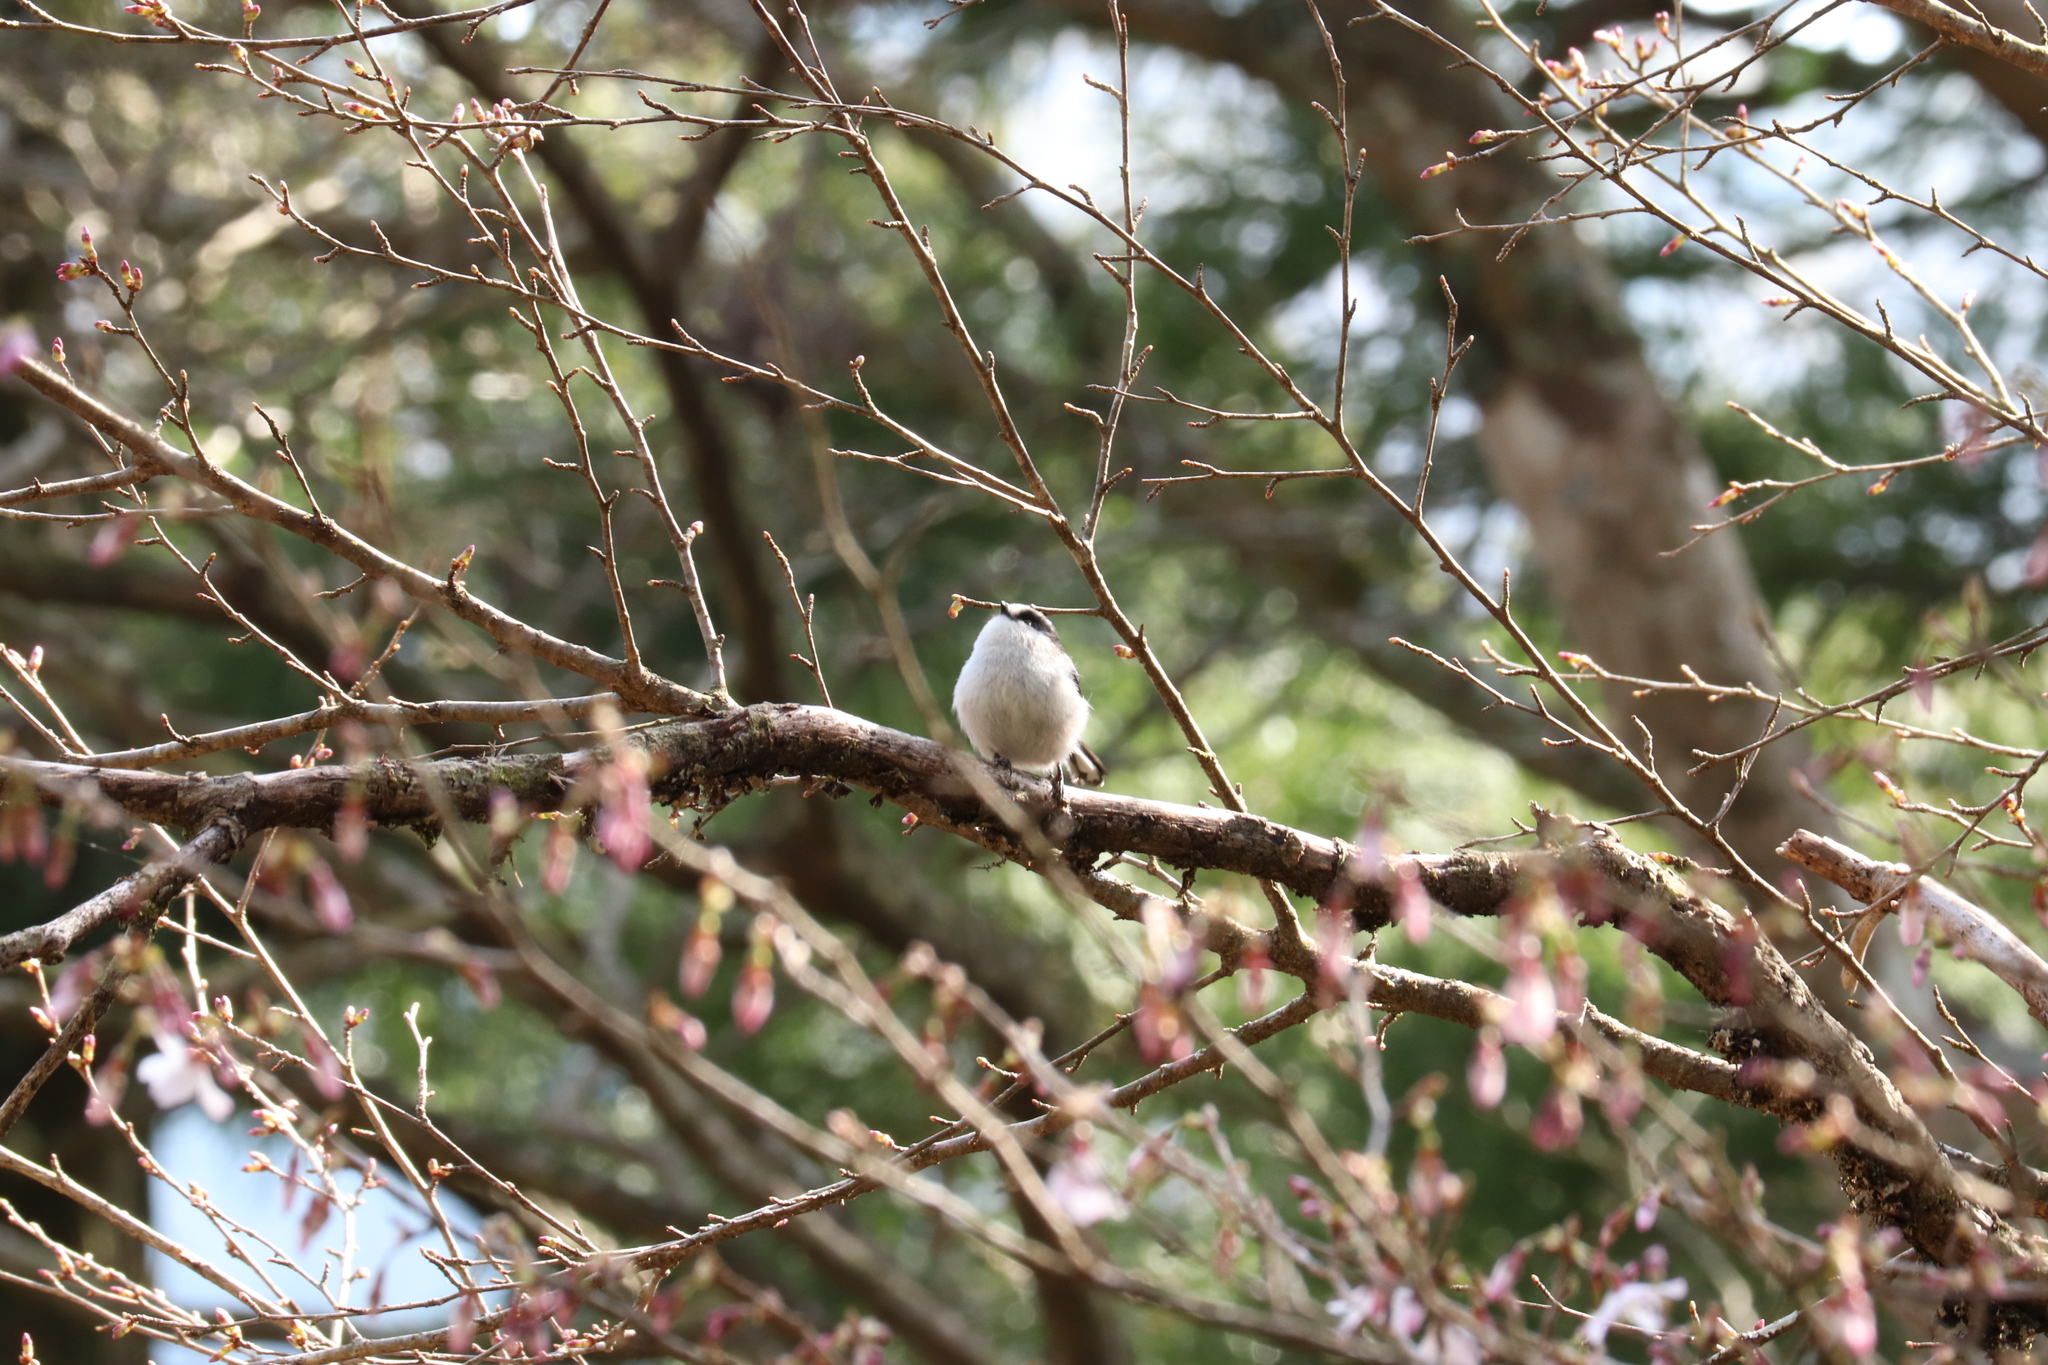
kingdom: Animalia
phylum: Chordata
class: Aves
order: Passeriformes
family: Aegithalidae
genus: Aegithalos
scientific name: Aegithalos caudatus
